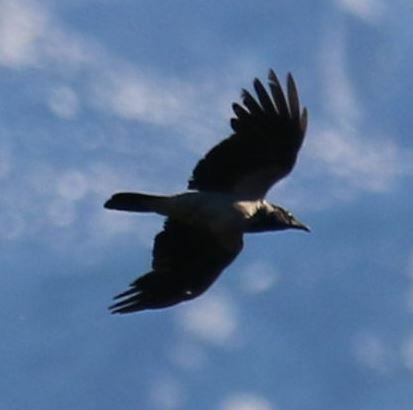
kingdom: Animalia
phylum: Chordata
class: Aves
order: Passeriformes
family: Corvidae
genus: Corvus
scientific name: Corvus cornix
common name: Hooded crow
